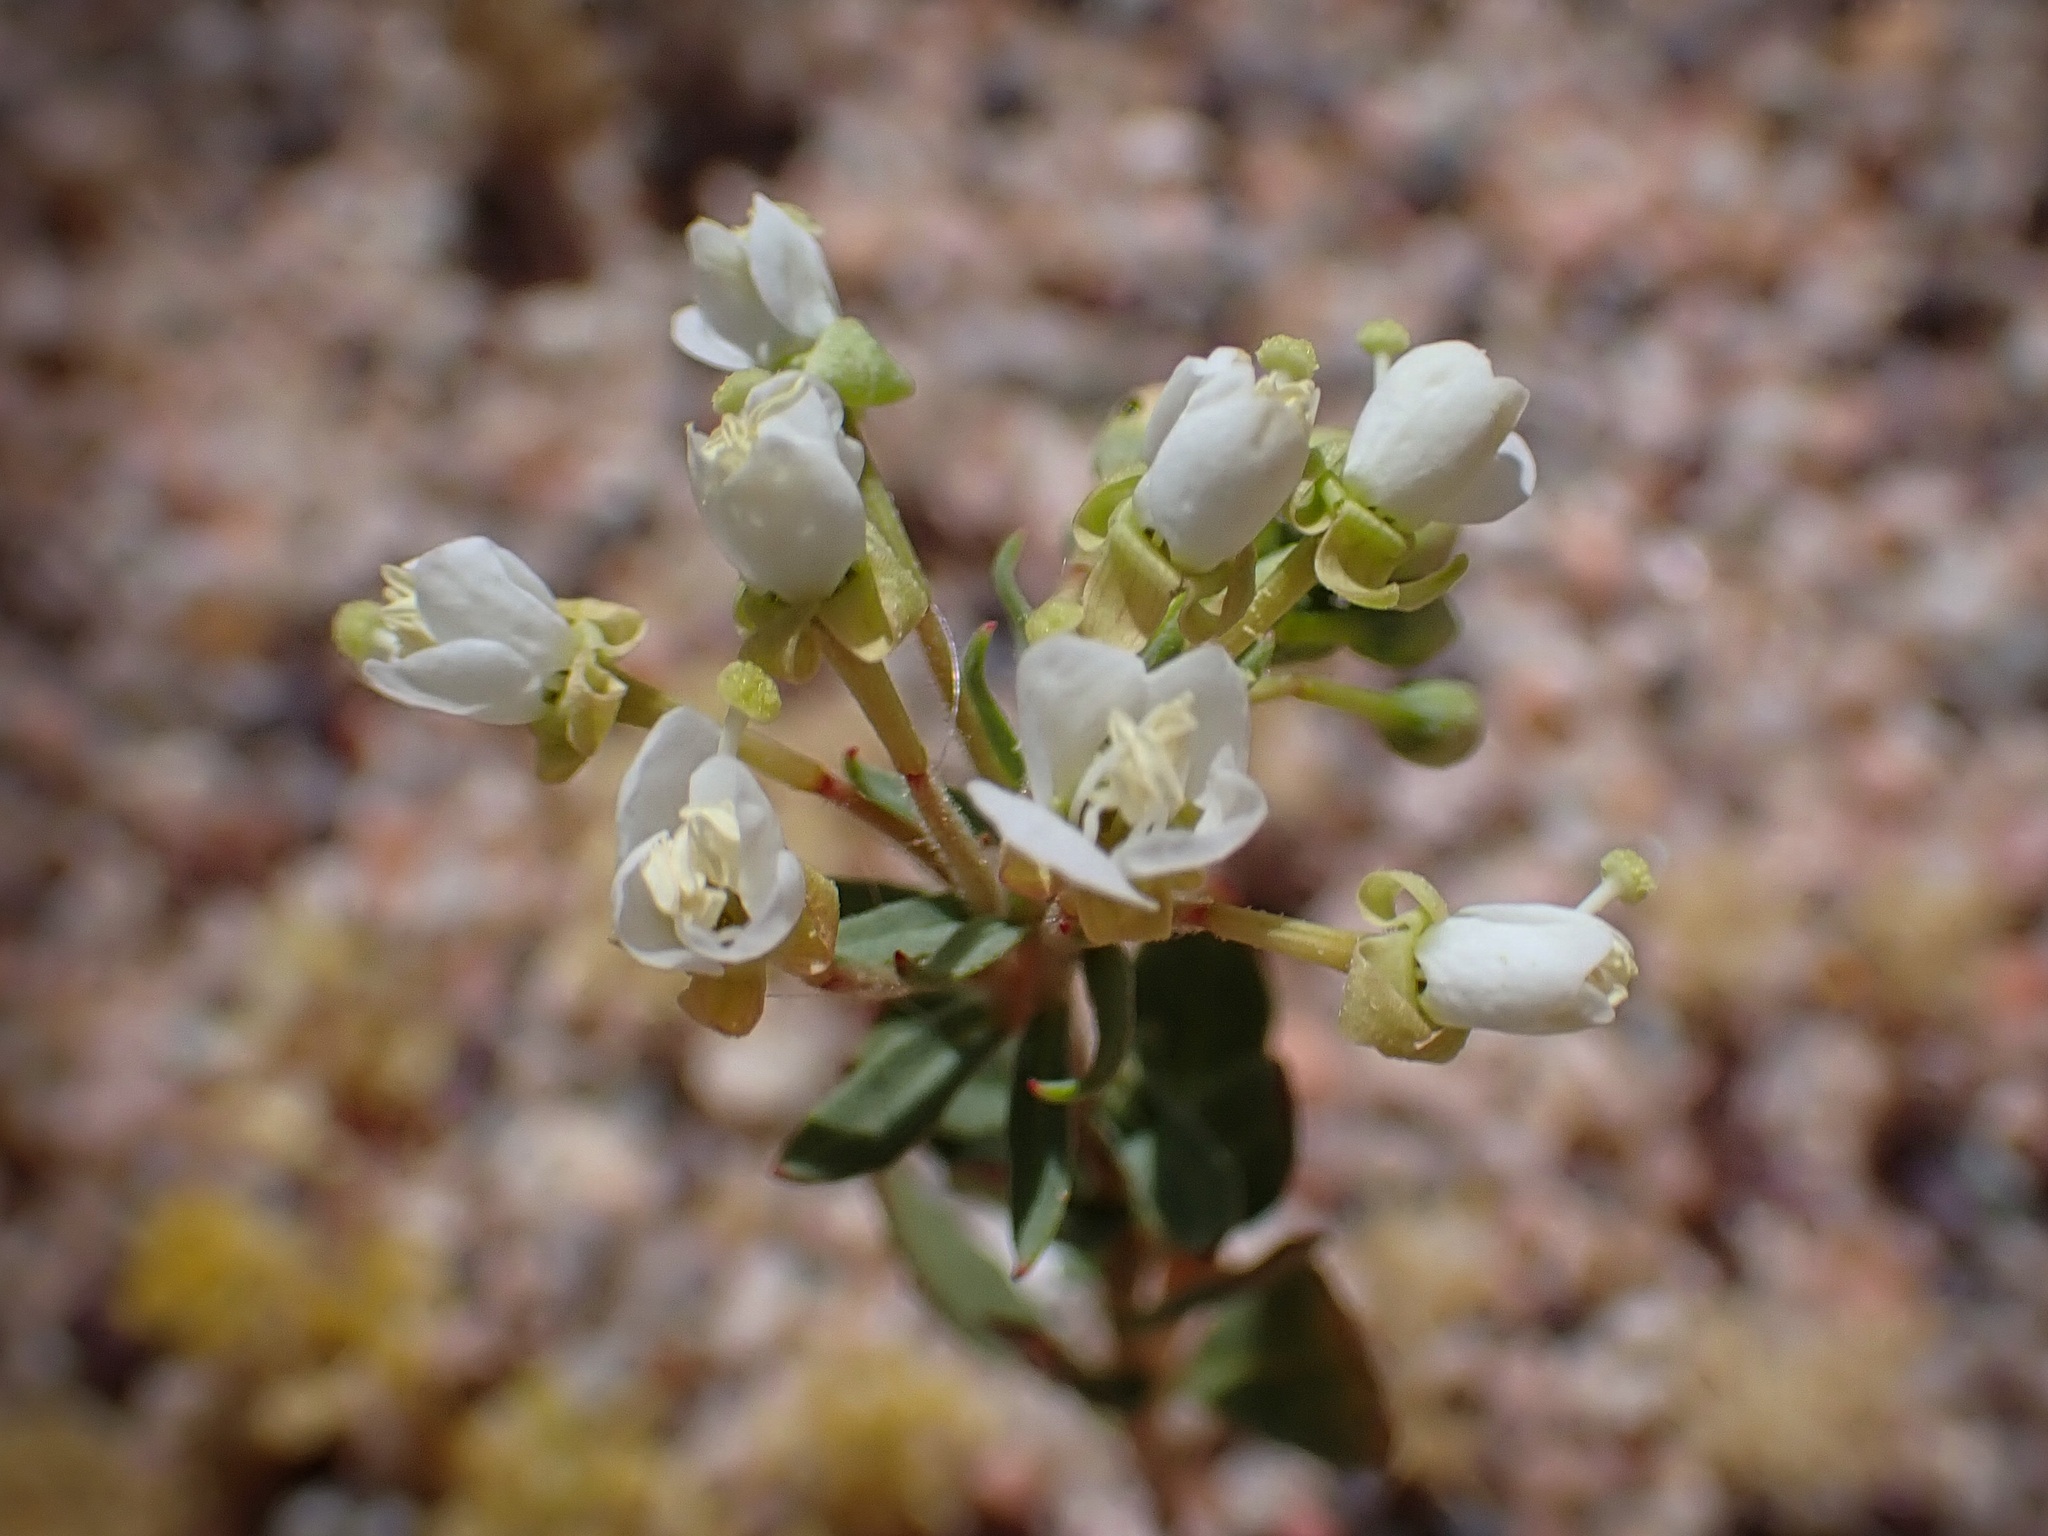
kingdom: Plantae
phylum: Tracheophyta
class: Magnoliopsida
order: Myrtales
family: Onagraceae
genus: Eremothera
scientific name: Eremothera boothii
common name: Booth's evening primrose
